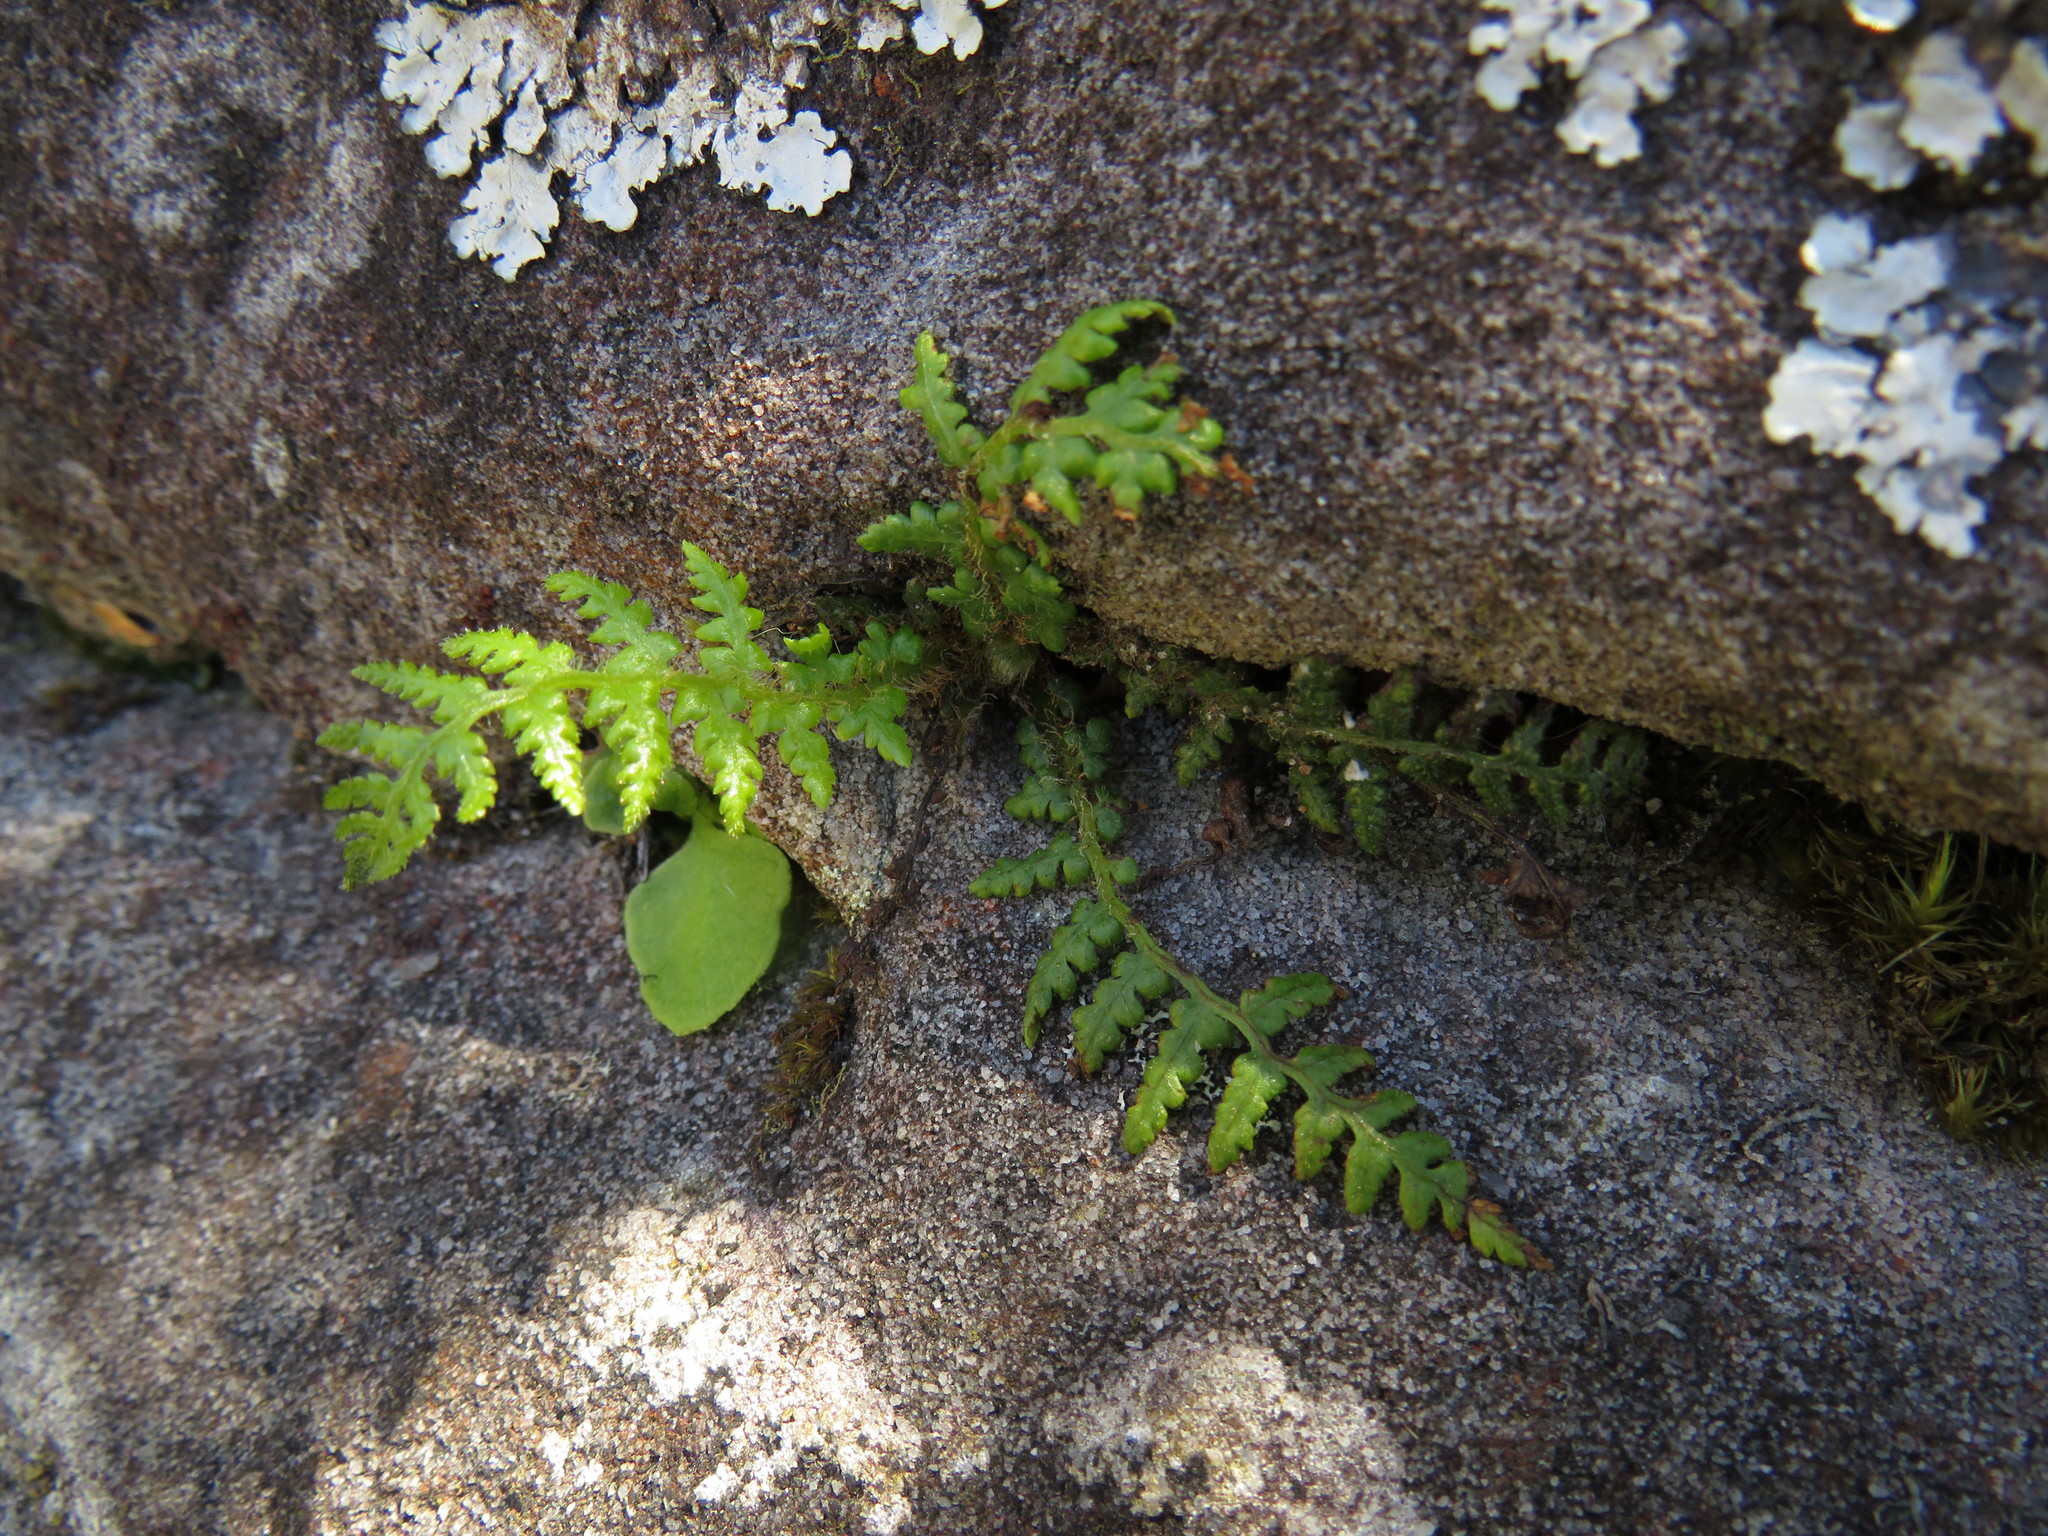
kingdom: Plantae
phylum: Tracheophyta
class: Polypodiopsida
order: Cyatheales
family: Cyatheaceae
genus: Sphaeropteris
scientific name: Sphaeropteris cooperi
